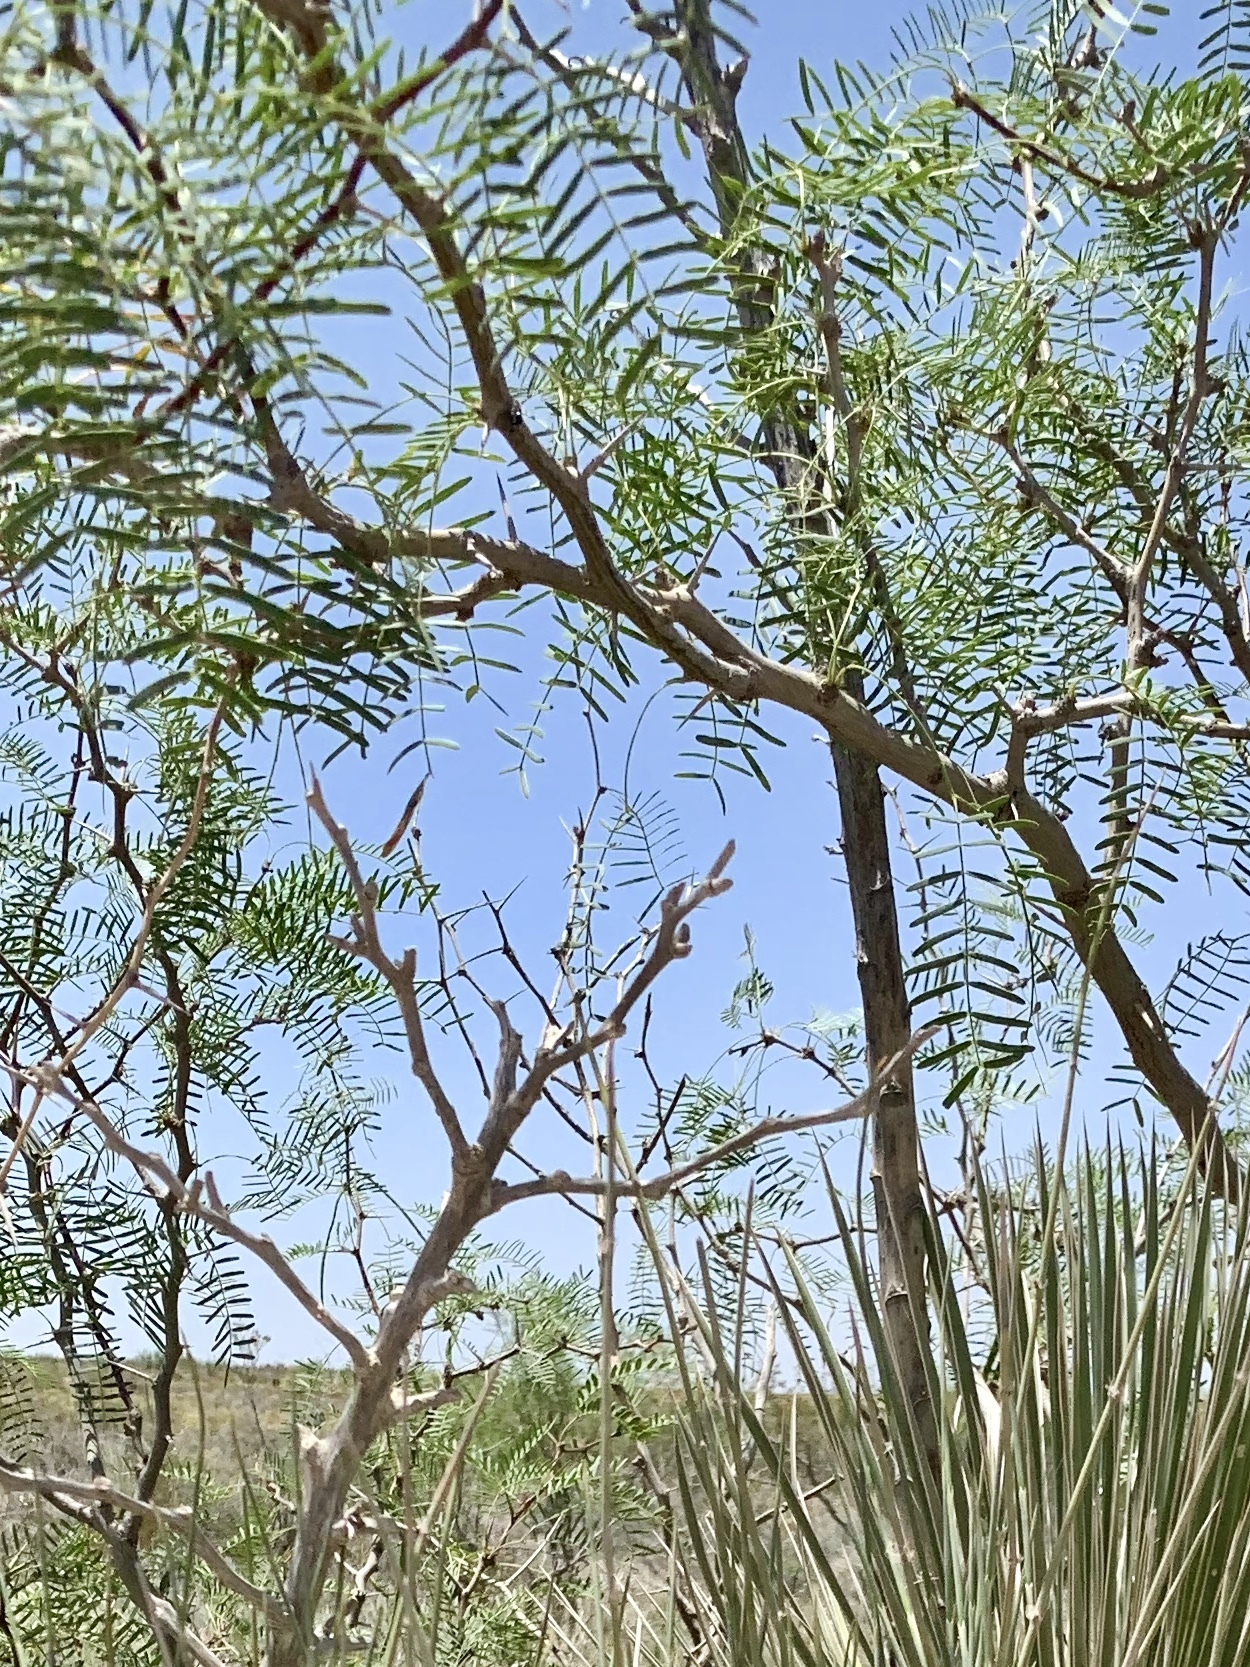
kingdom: Plantae
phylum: Tracheophyta
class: Magnoliopsida
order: Fabales
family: Fabaceae
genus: Prosopis
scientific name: Prosopis glandulosa
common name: Honey mesquite
